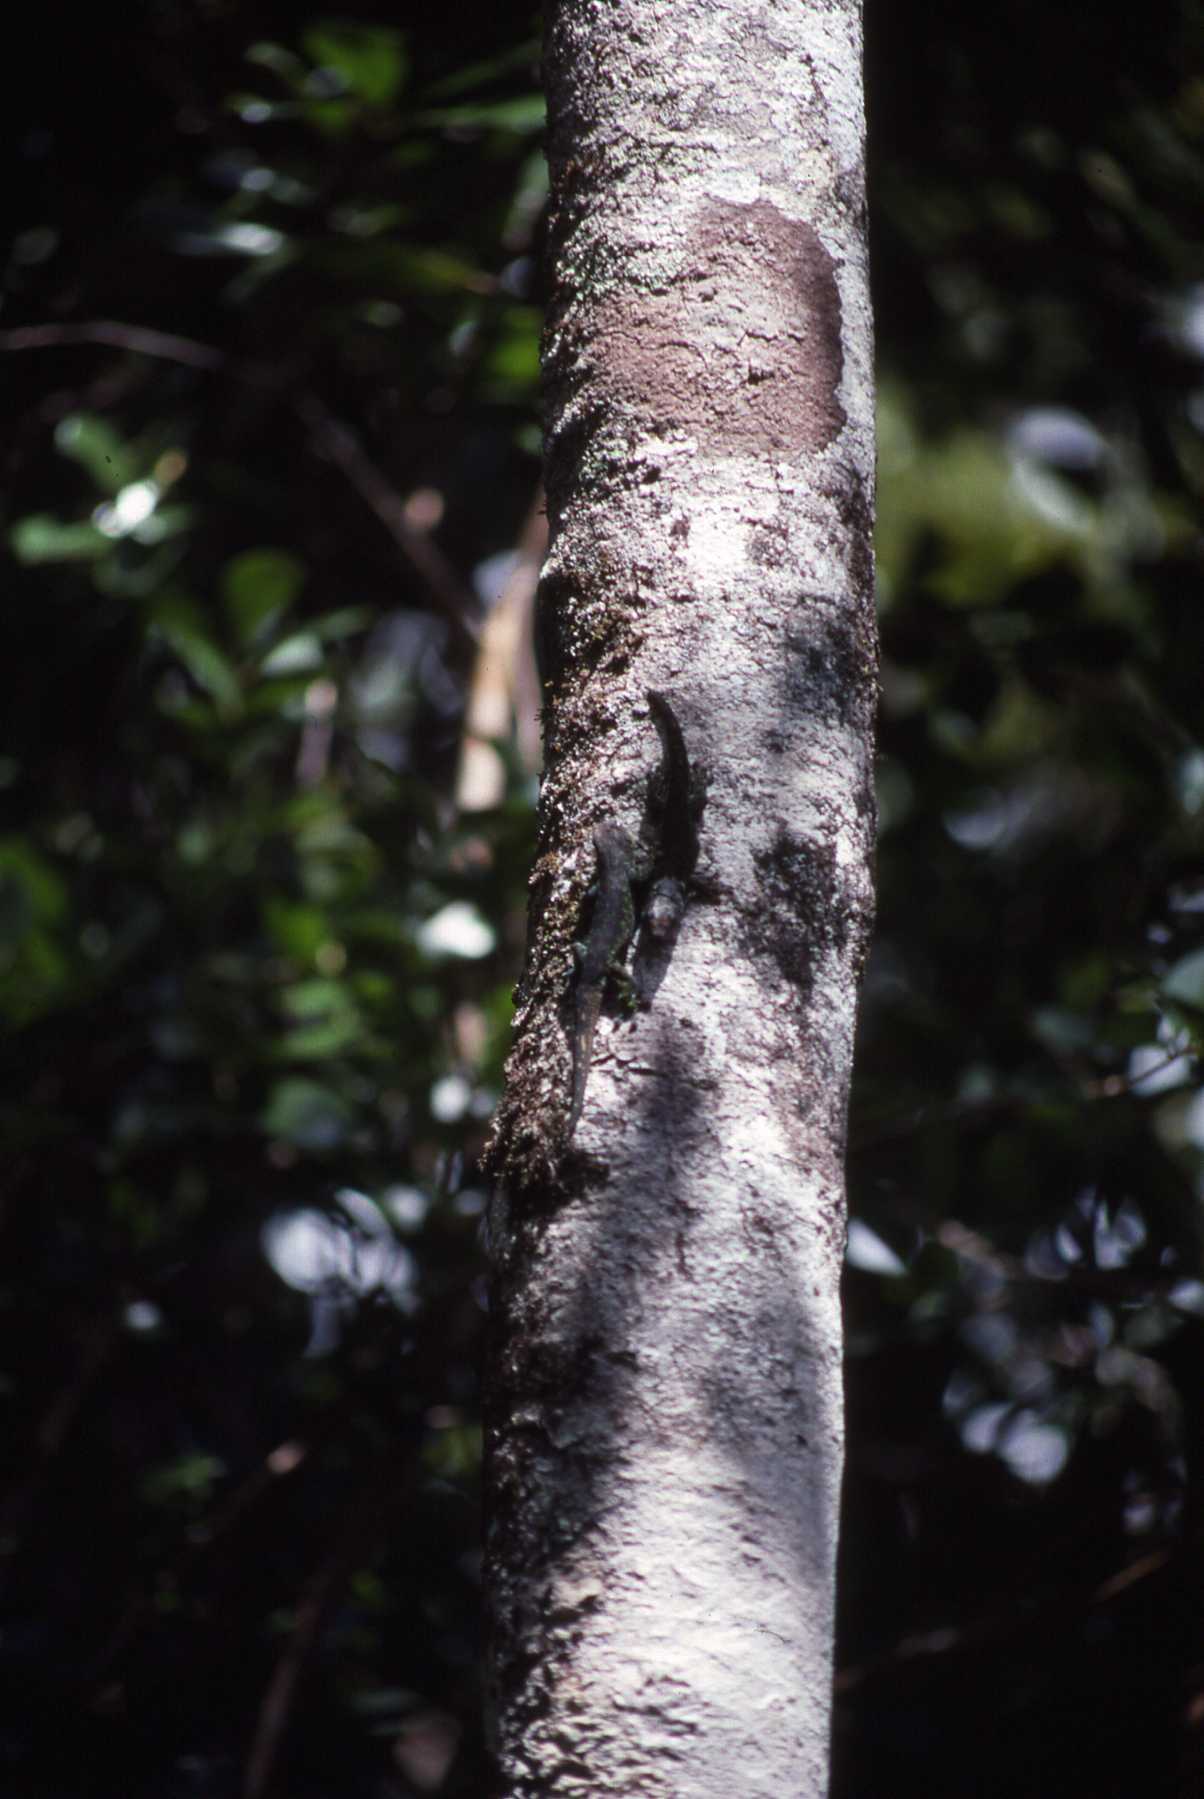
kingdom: Animalia
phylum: Chordata
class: Squamata
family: Gekkonidae
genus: Phelsuma
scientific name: Phelsuma rosagularis
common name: Upland forest day gecko
